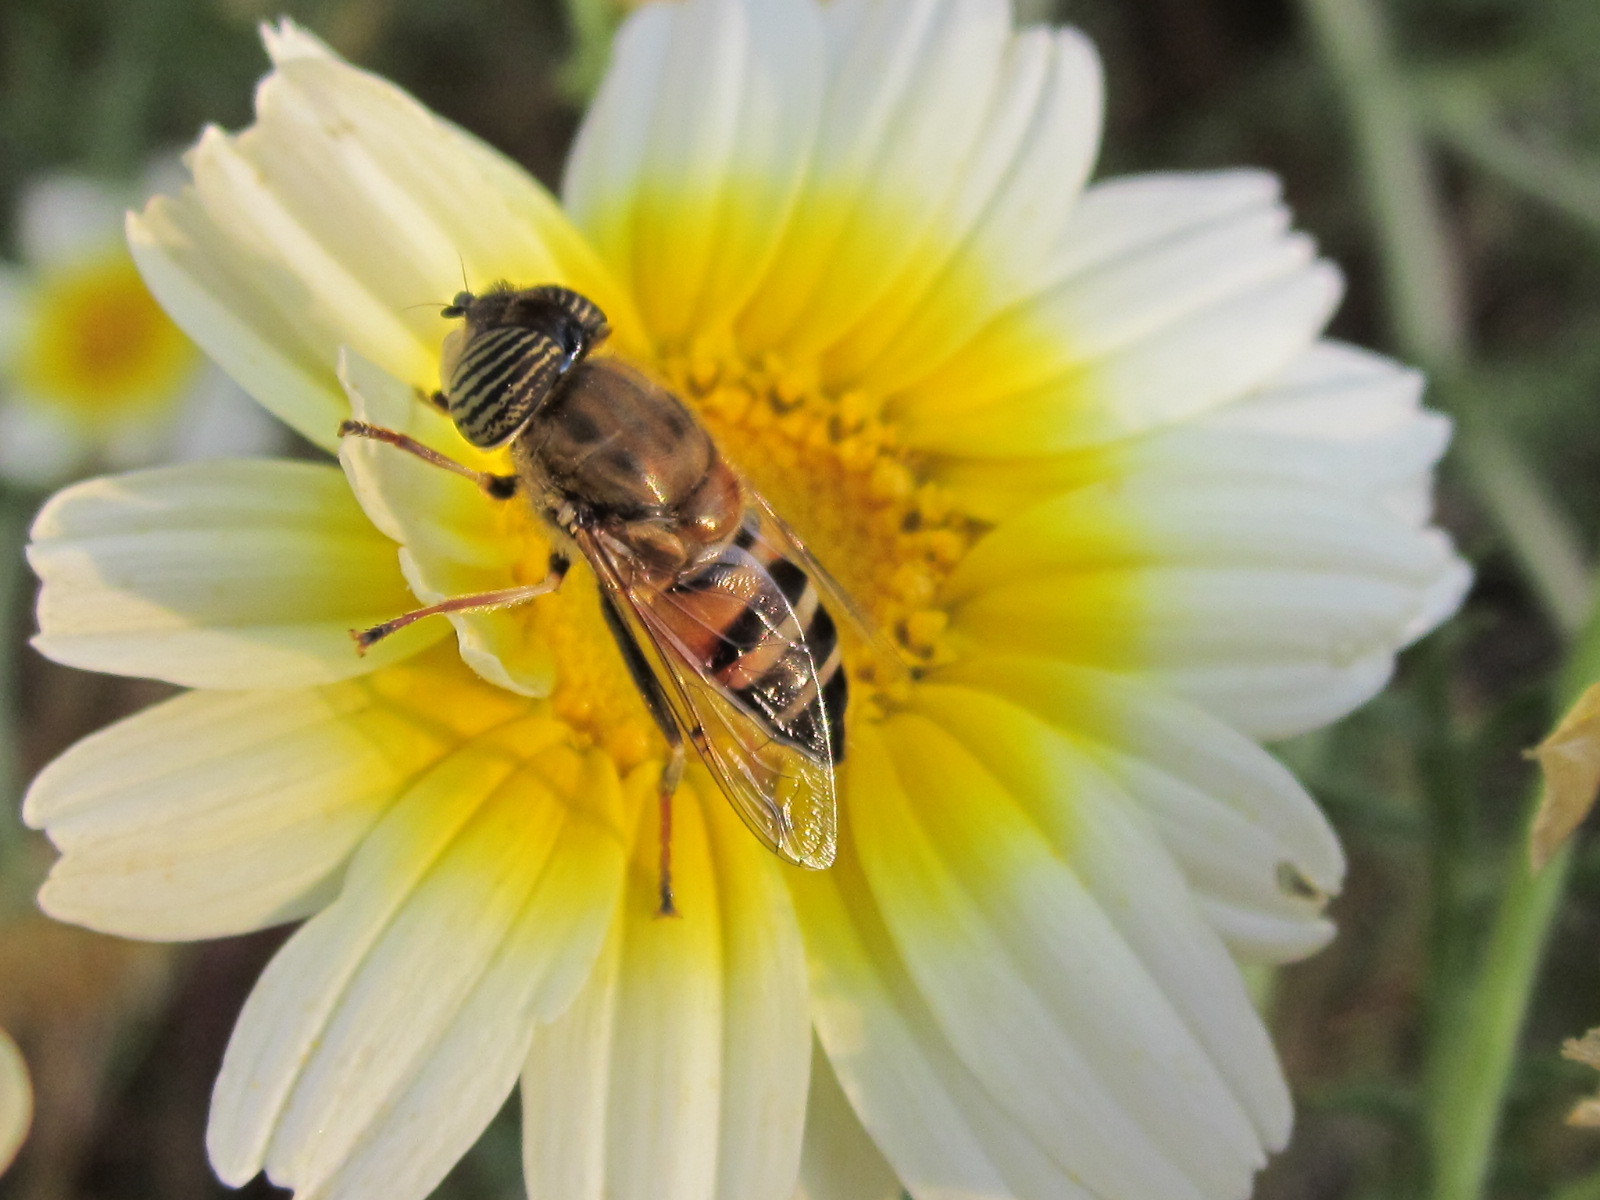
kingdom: Animalia
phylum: Arthropoda
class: Insecta
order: Diptera
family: Syrphidae
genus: Eristalinus
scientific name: Eristalinus taeniops
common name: Syrphid fly
